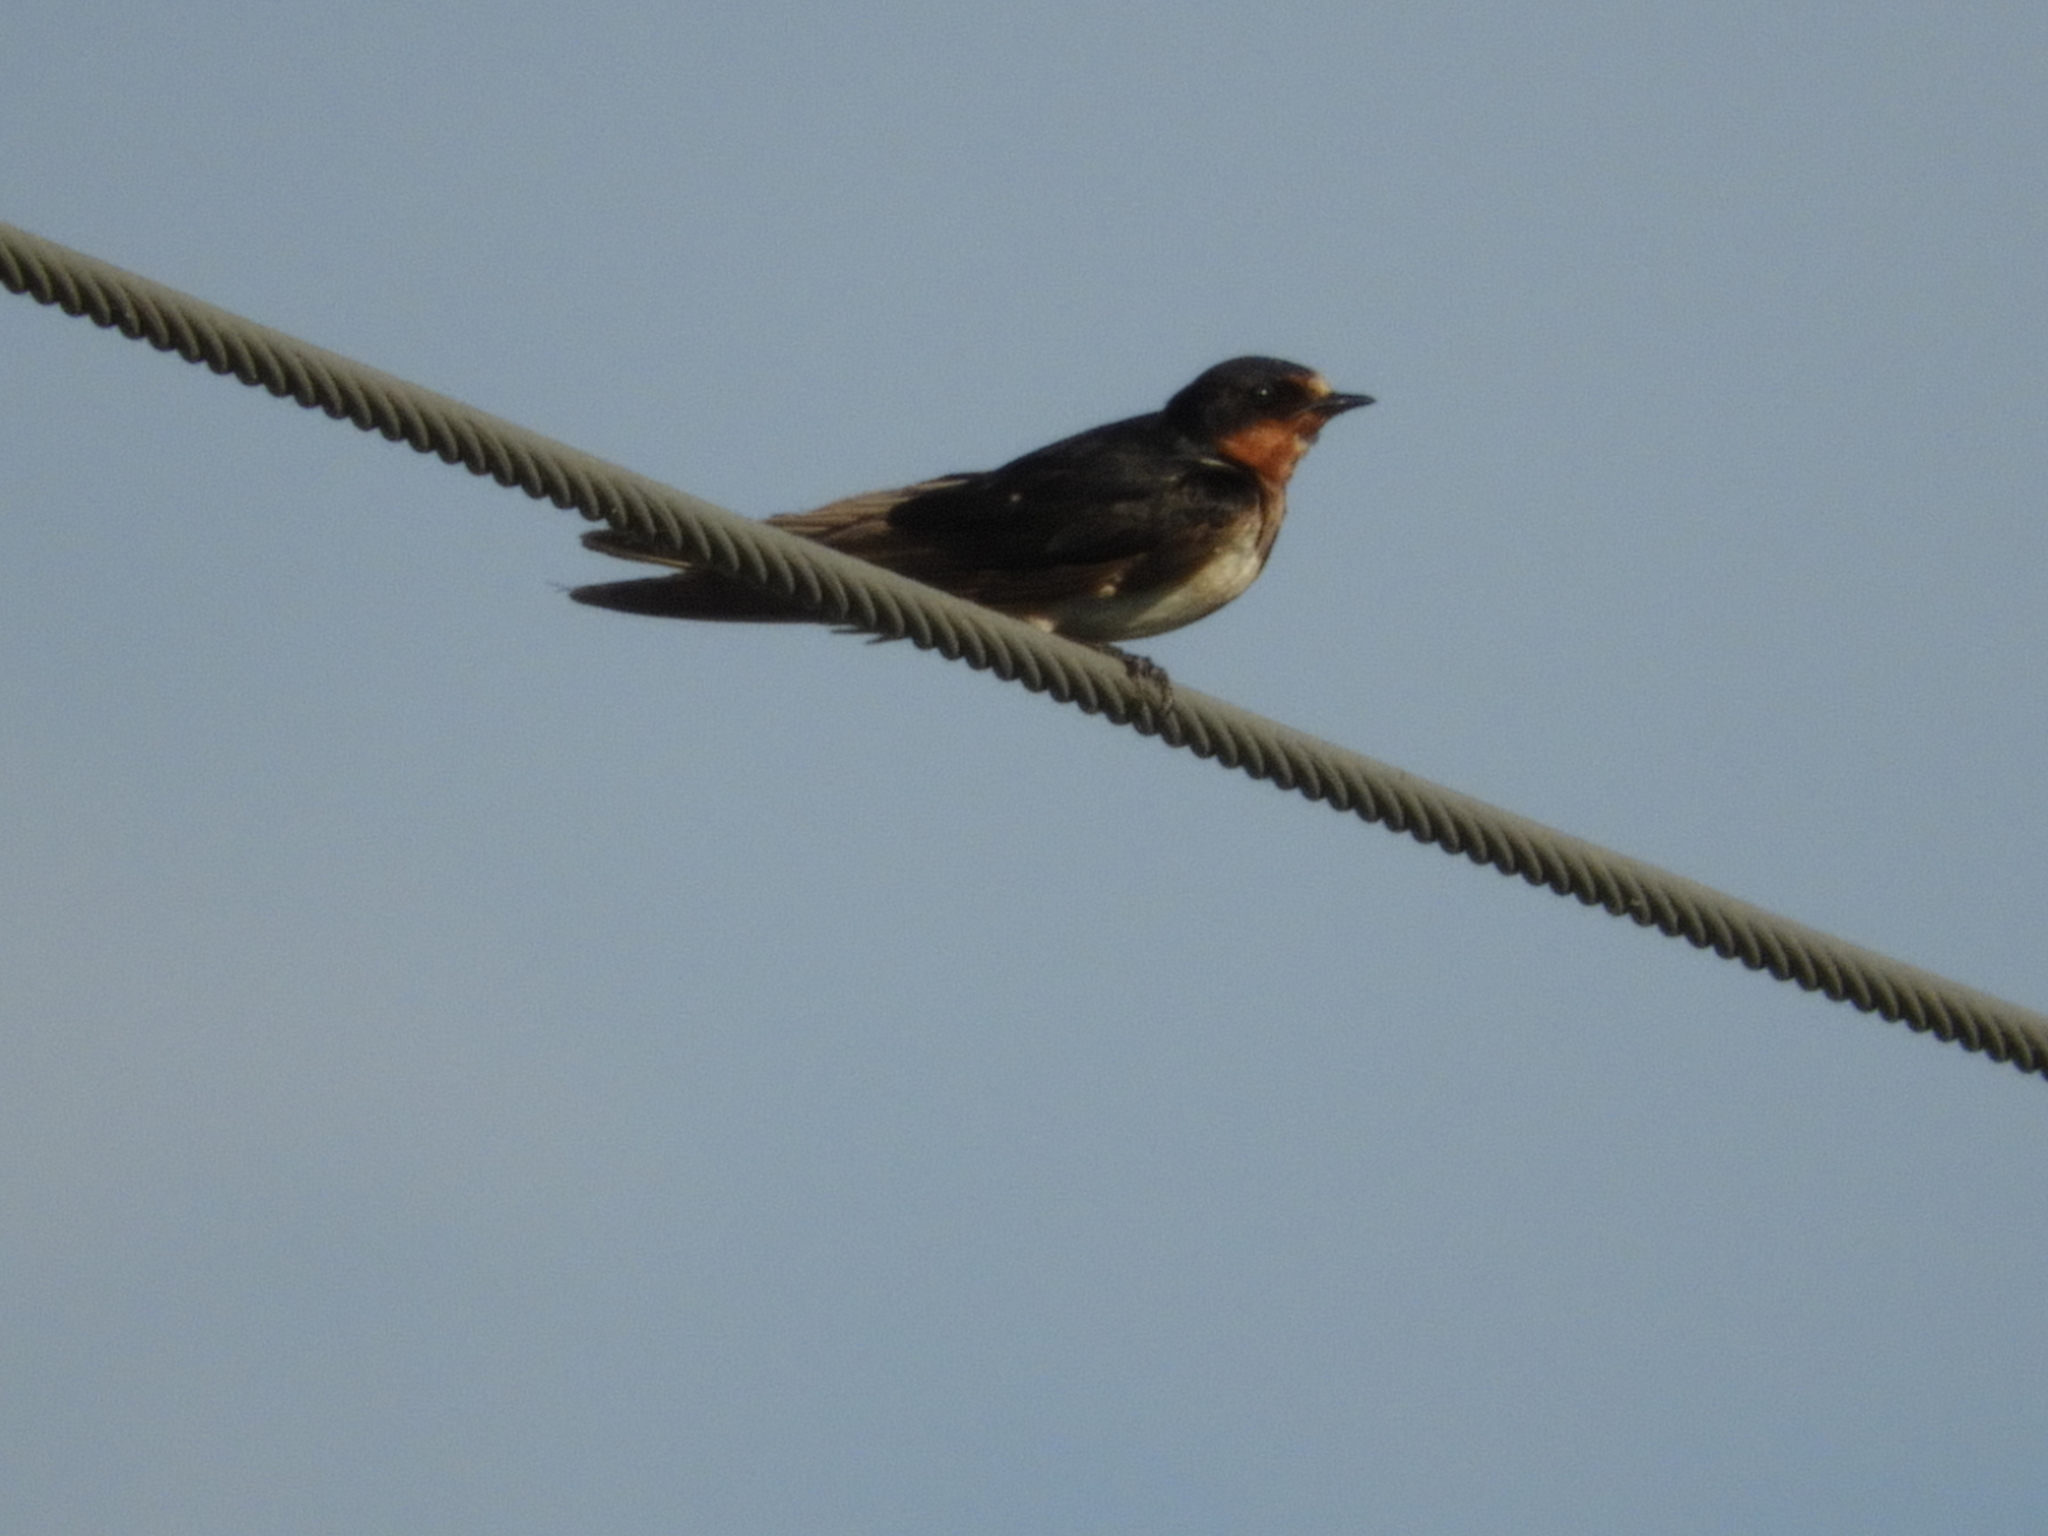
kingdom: Animalia
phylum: Chordata
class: Aves
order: Passeriformes
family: Hirundinidae
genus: Hirundo
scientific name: Hirundo rustica
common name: Barn swallow
